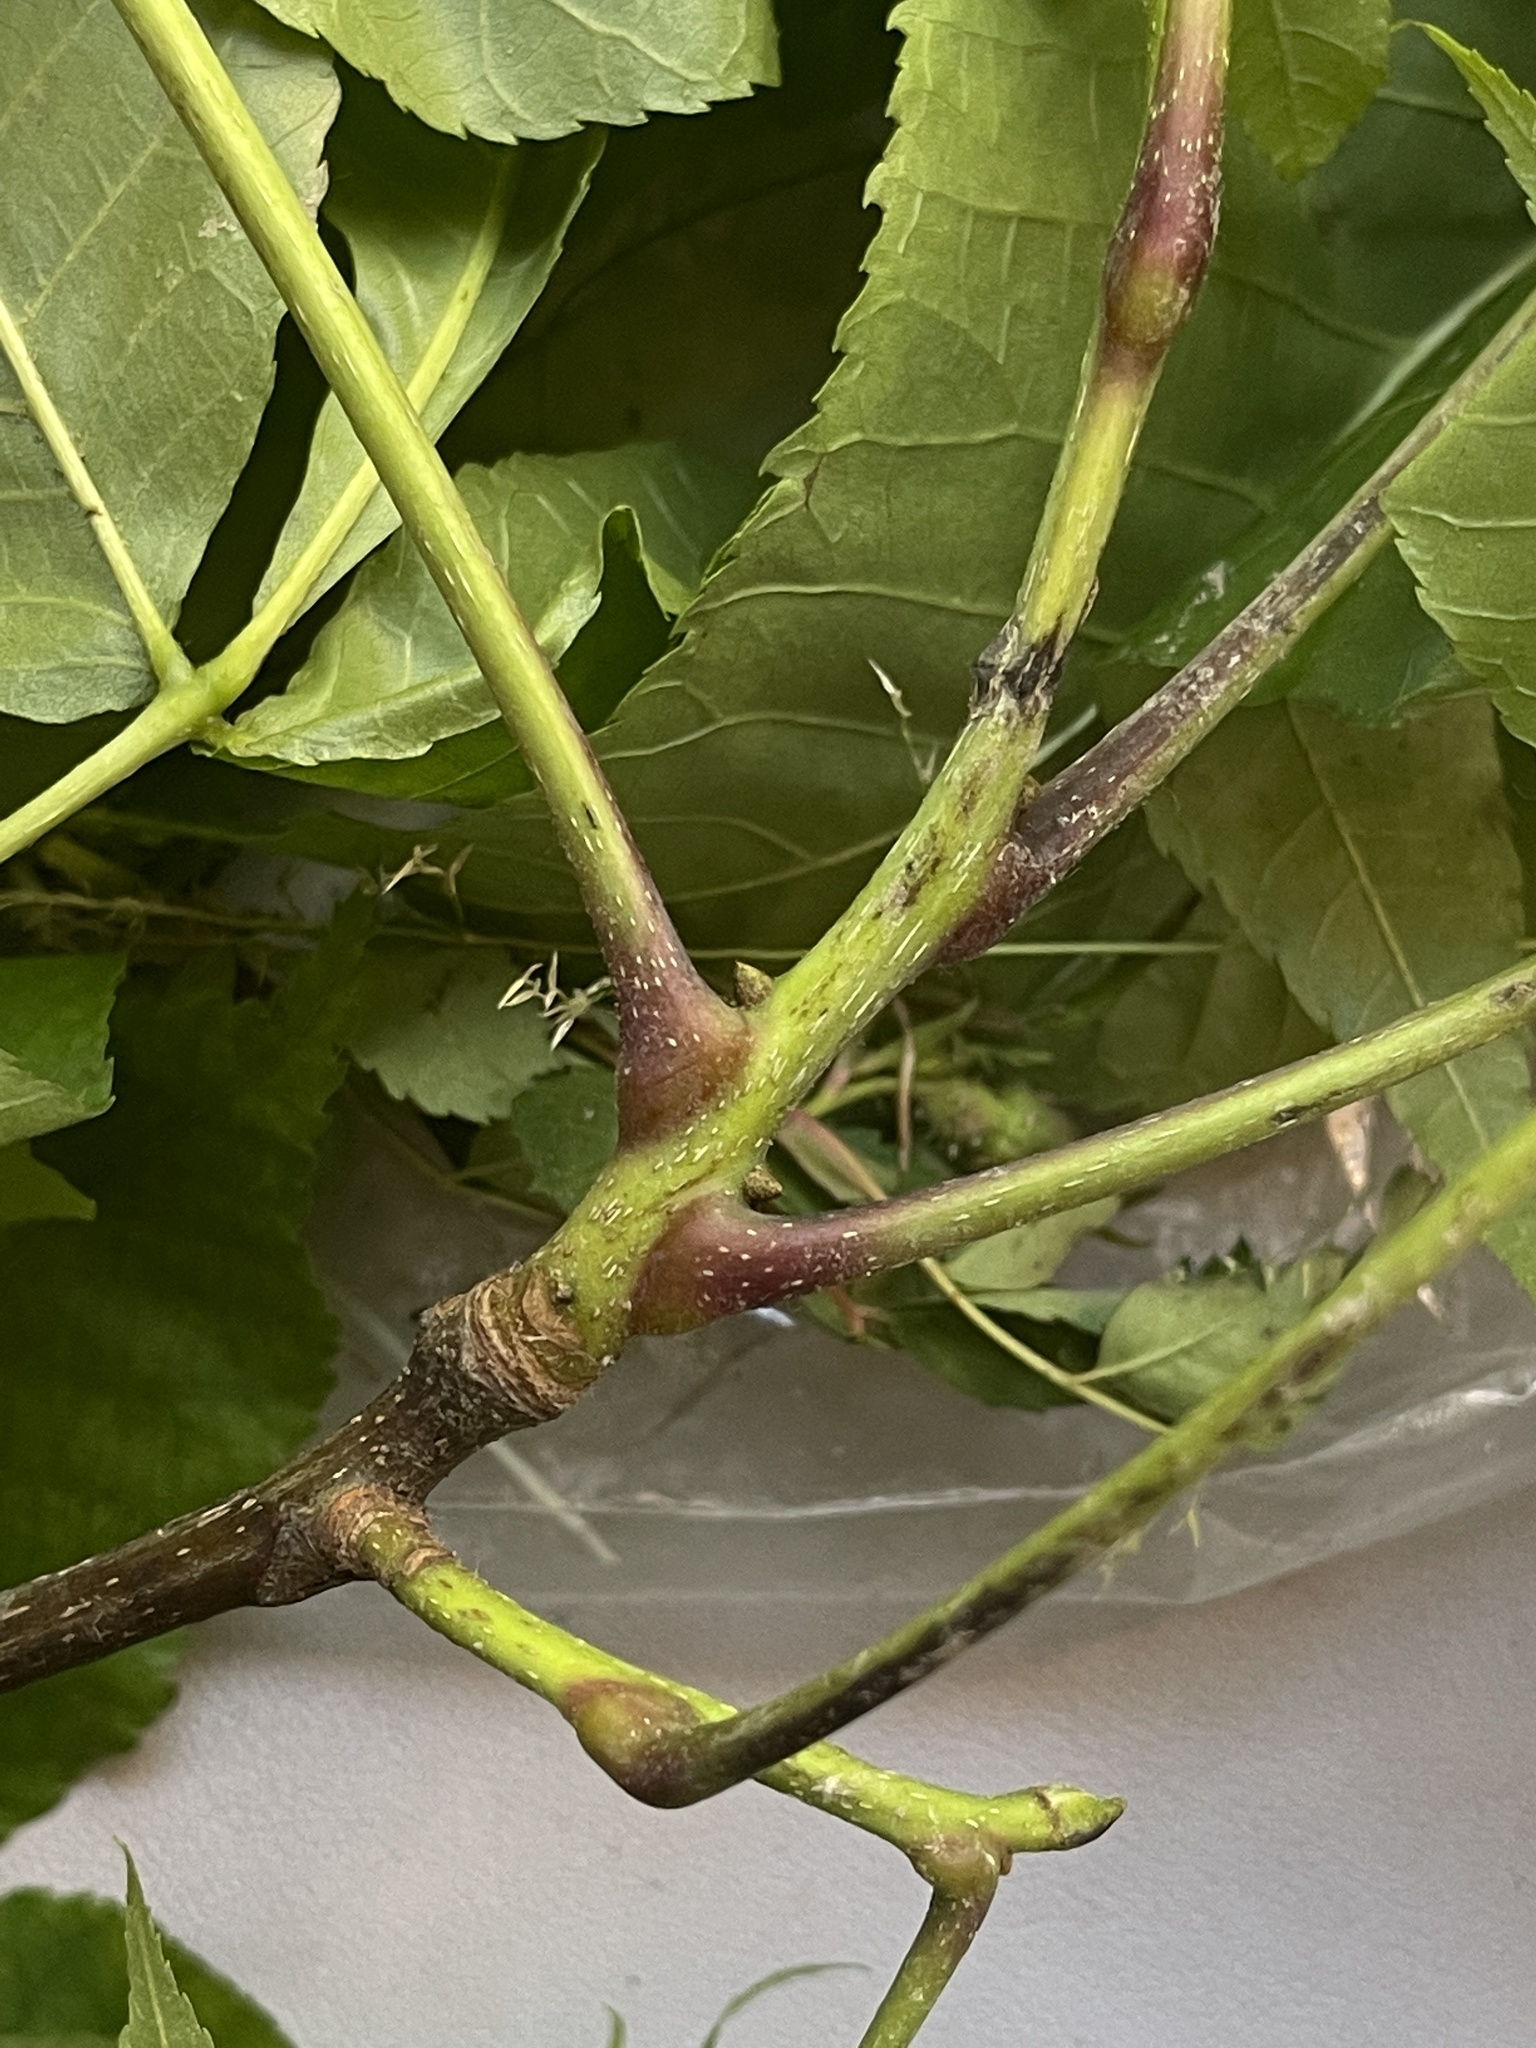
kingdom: Plantae
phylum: Tracheophyta
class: Magnoliopsida
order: Fagales
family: Juglandaceae
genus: Carya
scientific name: Carya ovalis
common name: False shagbark
